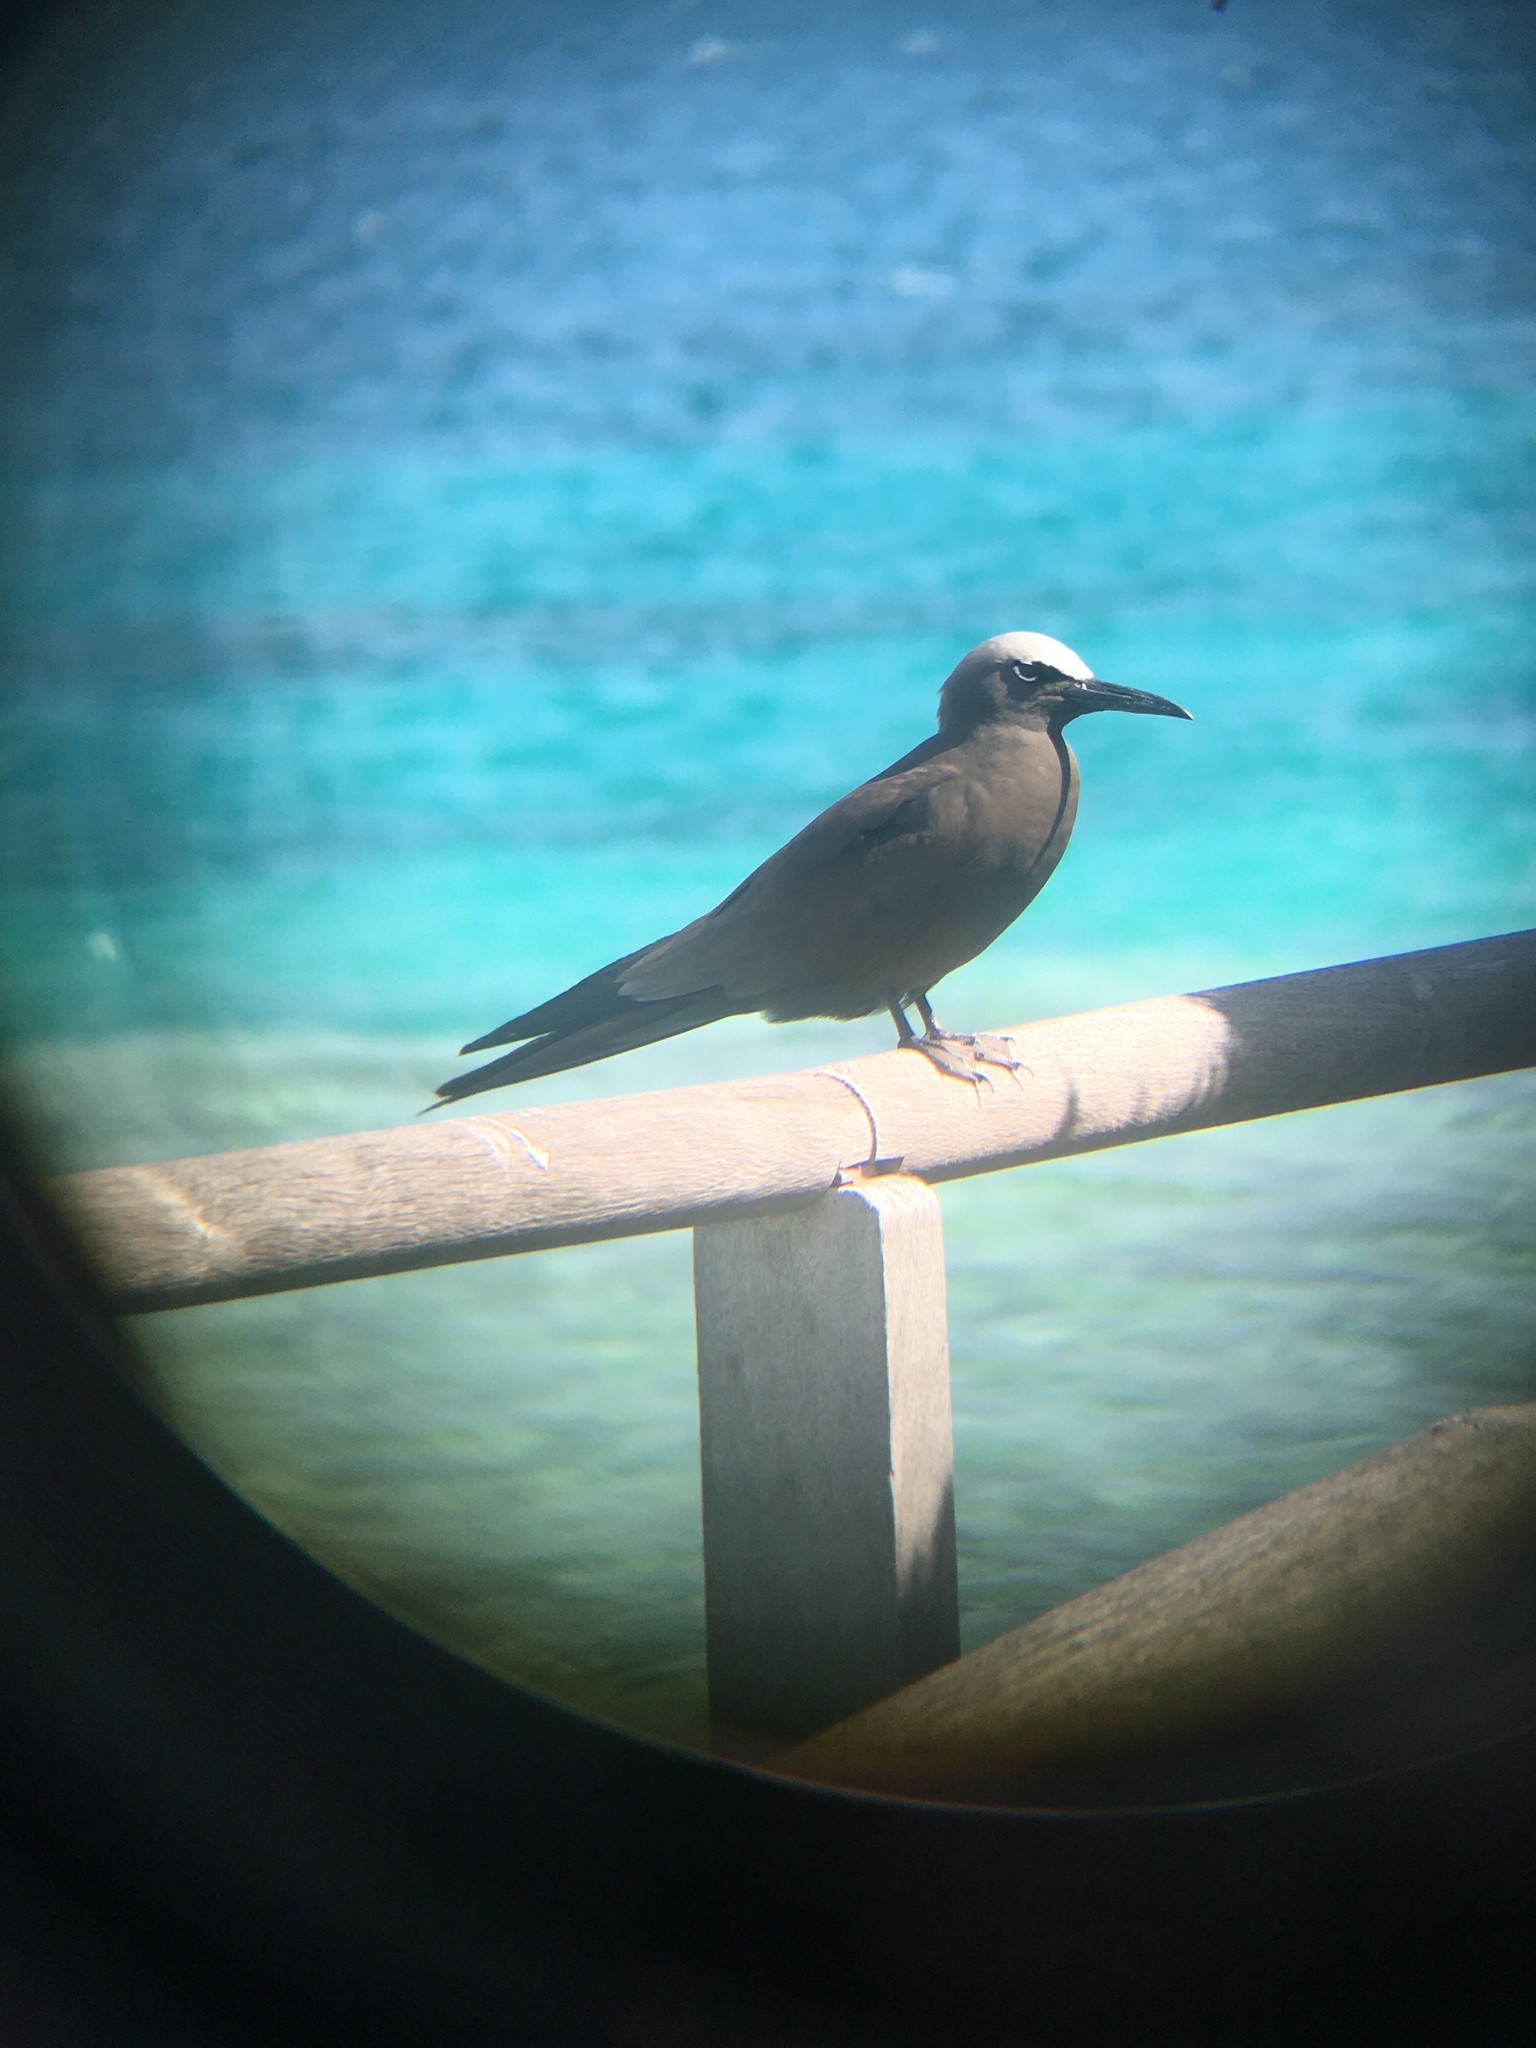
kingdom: Animalia
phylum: Chordata
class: Aves
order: Charadriiformes
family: Laridae
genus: Anous
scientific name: Anous stolidus
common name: Brown noddy
